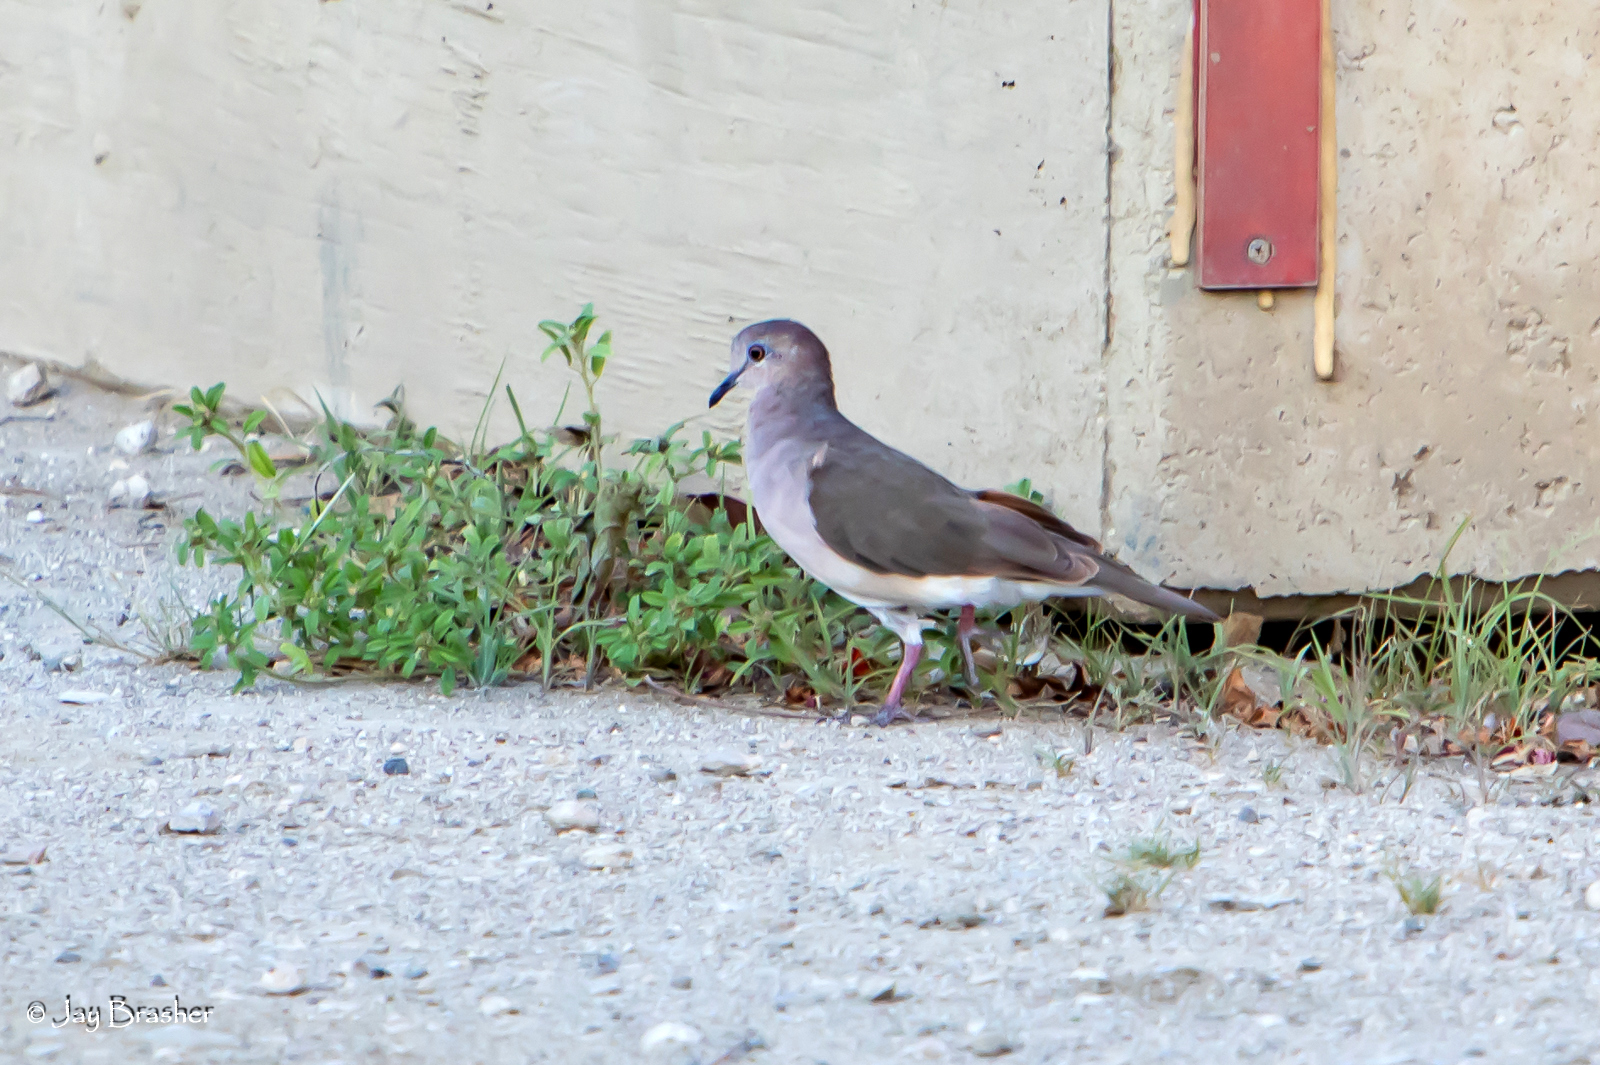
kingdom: Animalia
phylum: Chordata
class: Aves
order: Columbiformes
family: Columbidae
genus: Leptotila
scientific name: Leptotila verreauxi
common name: White-tipped dove
